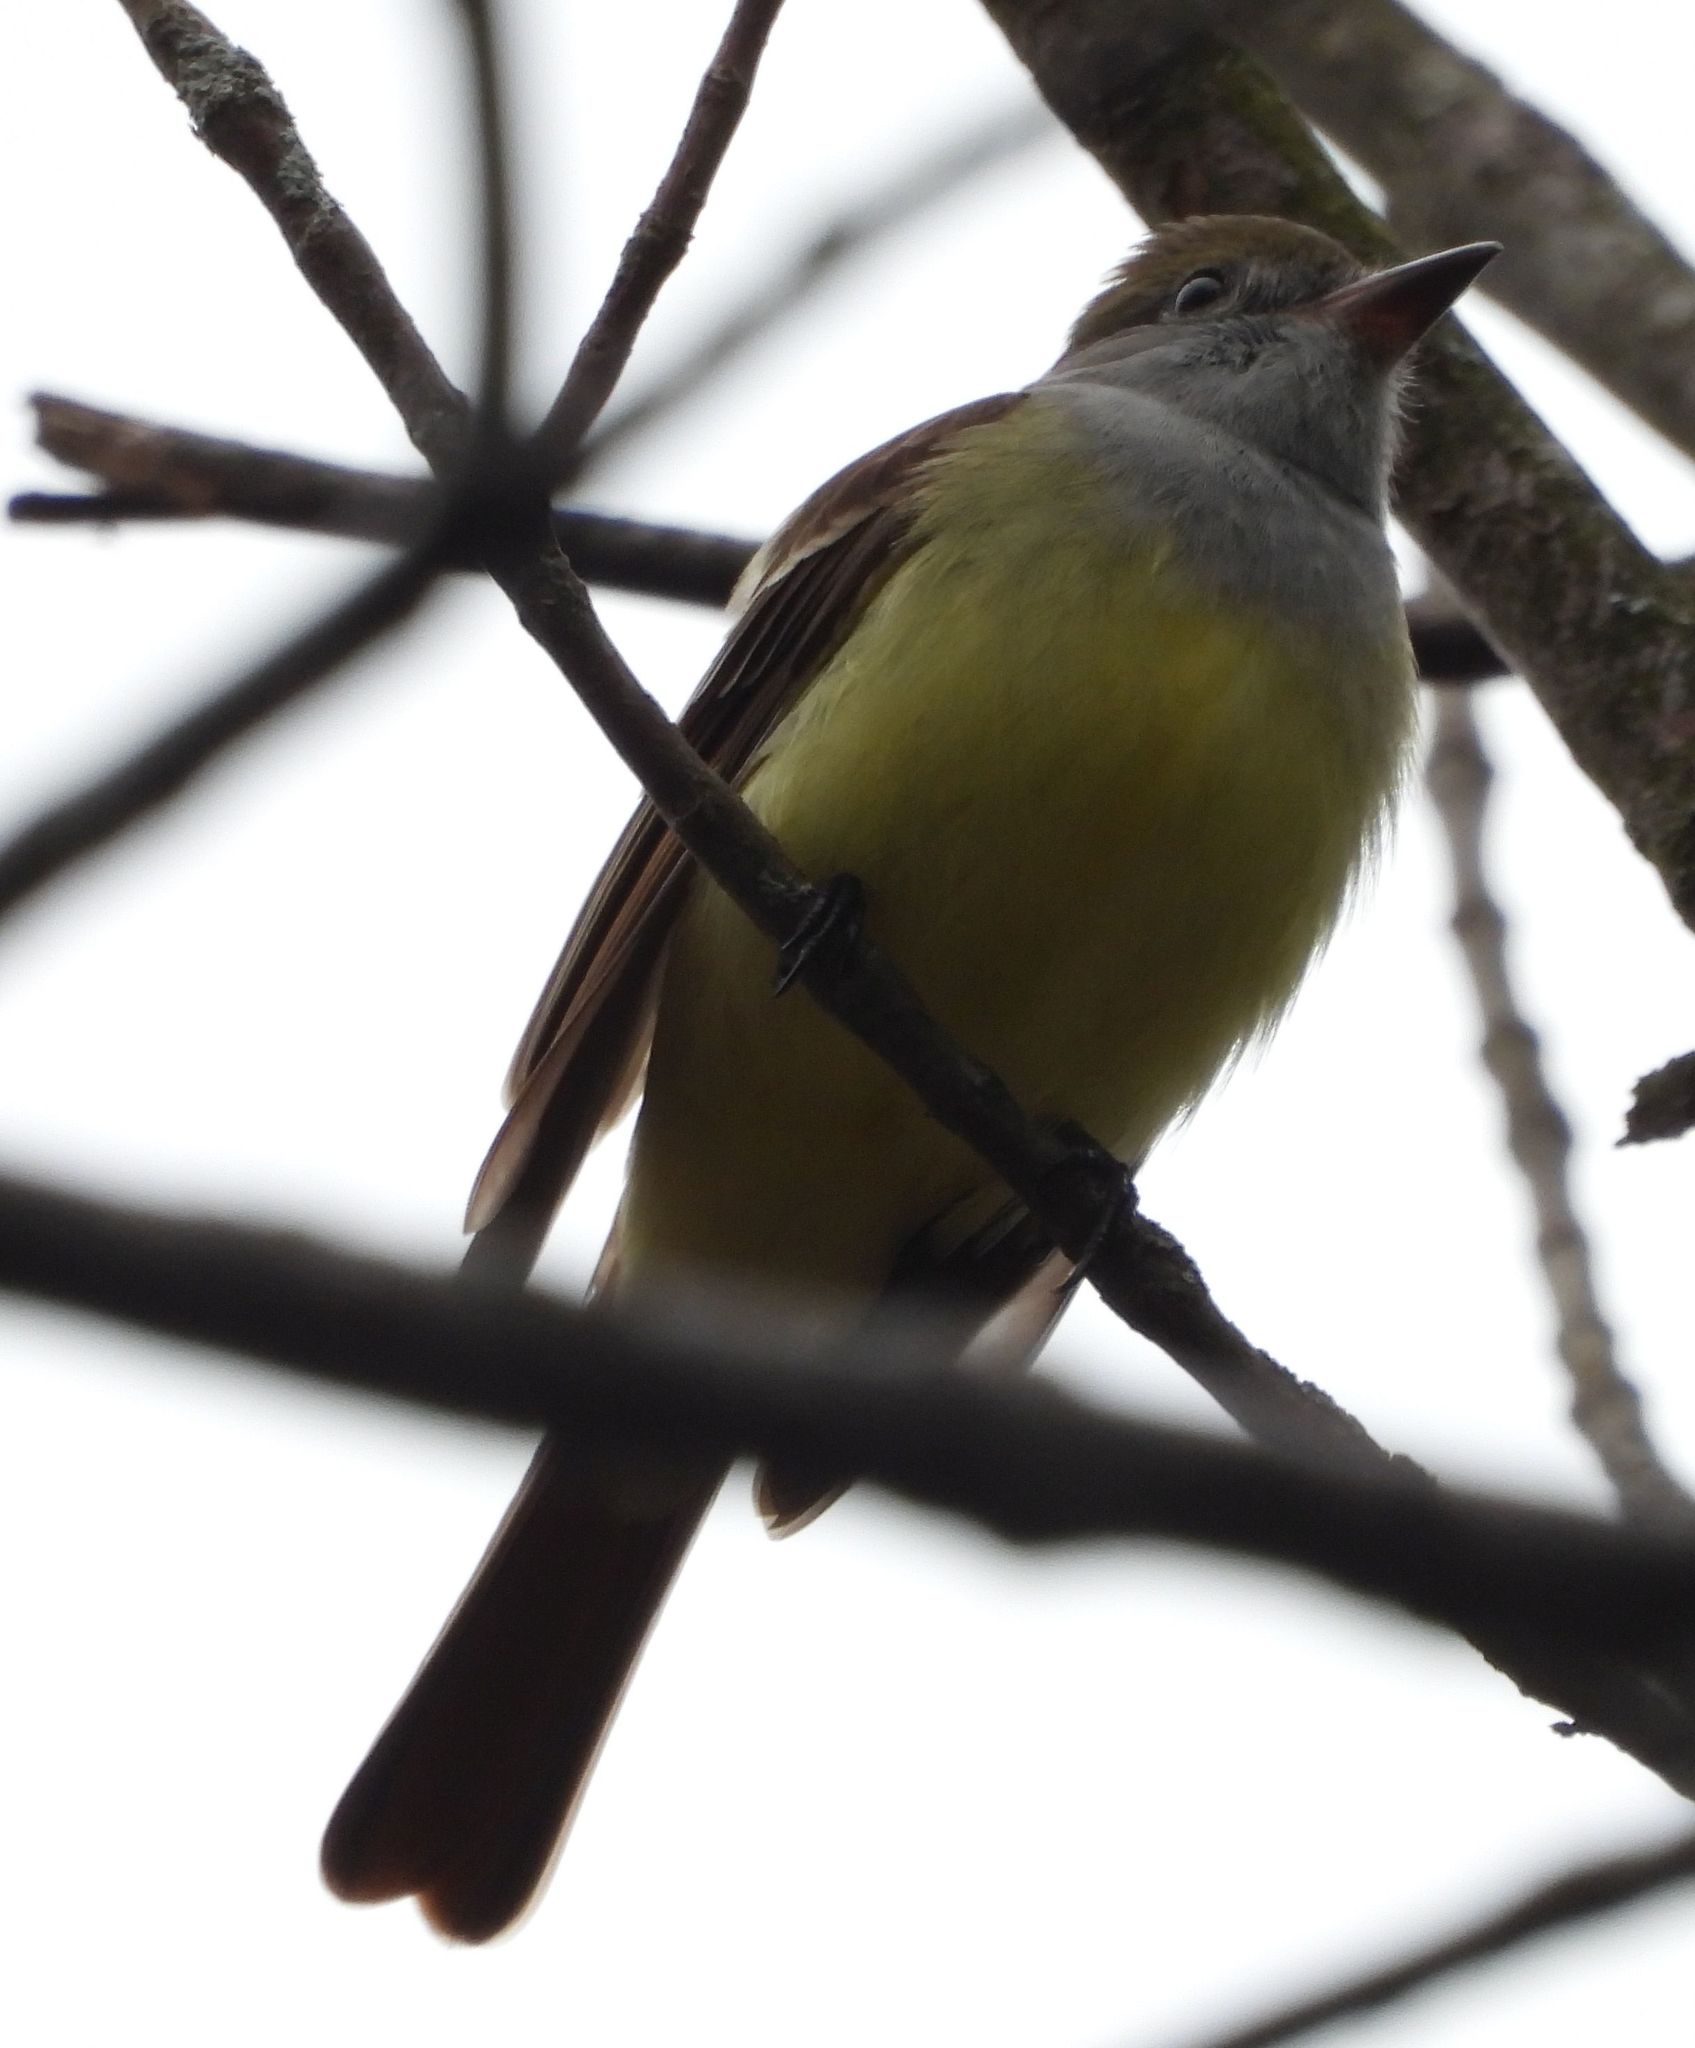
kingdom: Animalia
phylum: Chordata
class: Aves
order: Passeriformes
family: Tyrannidae
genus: Myiarchus
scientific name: Myiarchus crinitus
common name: Great crested flycatcher
